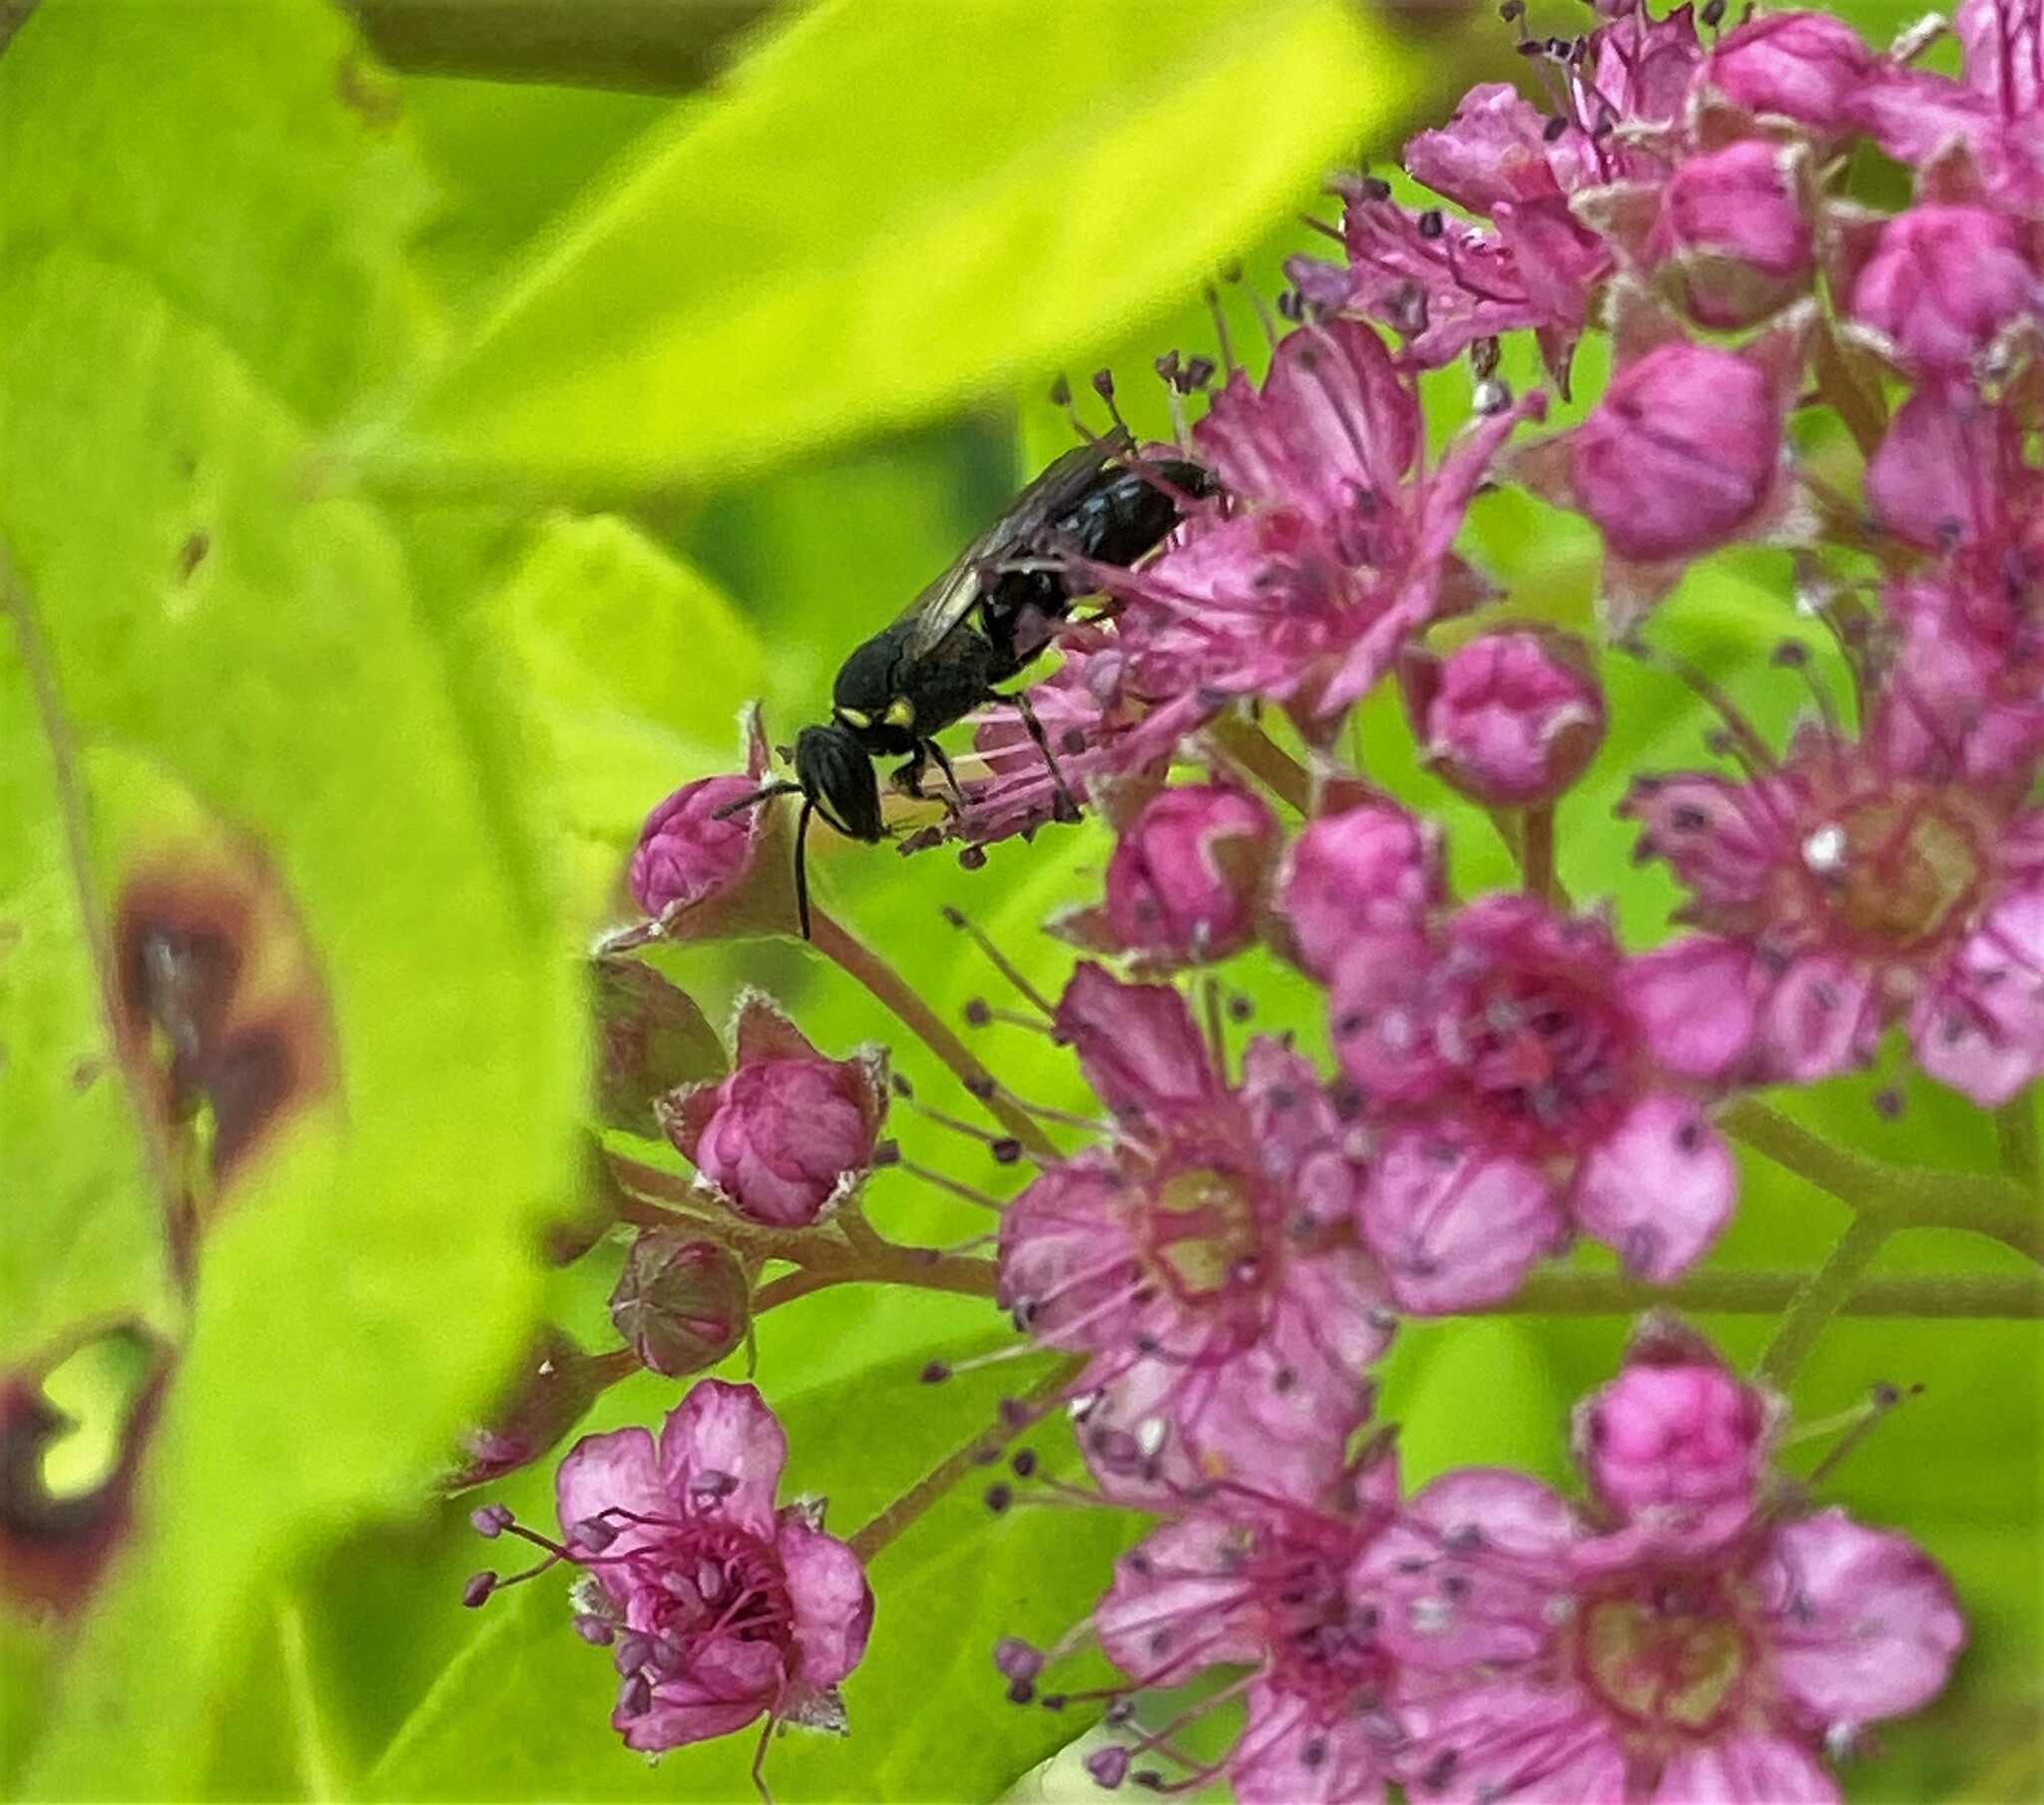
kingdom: Animalia
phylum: Arthropoda
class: Insecta
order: Hymenoptera
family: Colletidae
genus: Hylaeus
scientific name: Hylaeus modestus
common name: Yellow-faced bee
